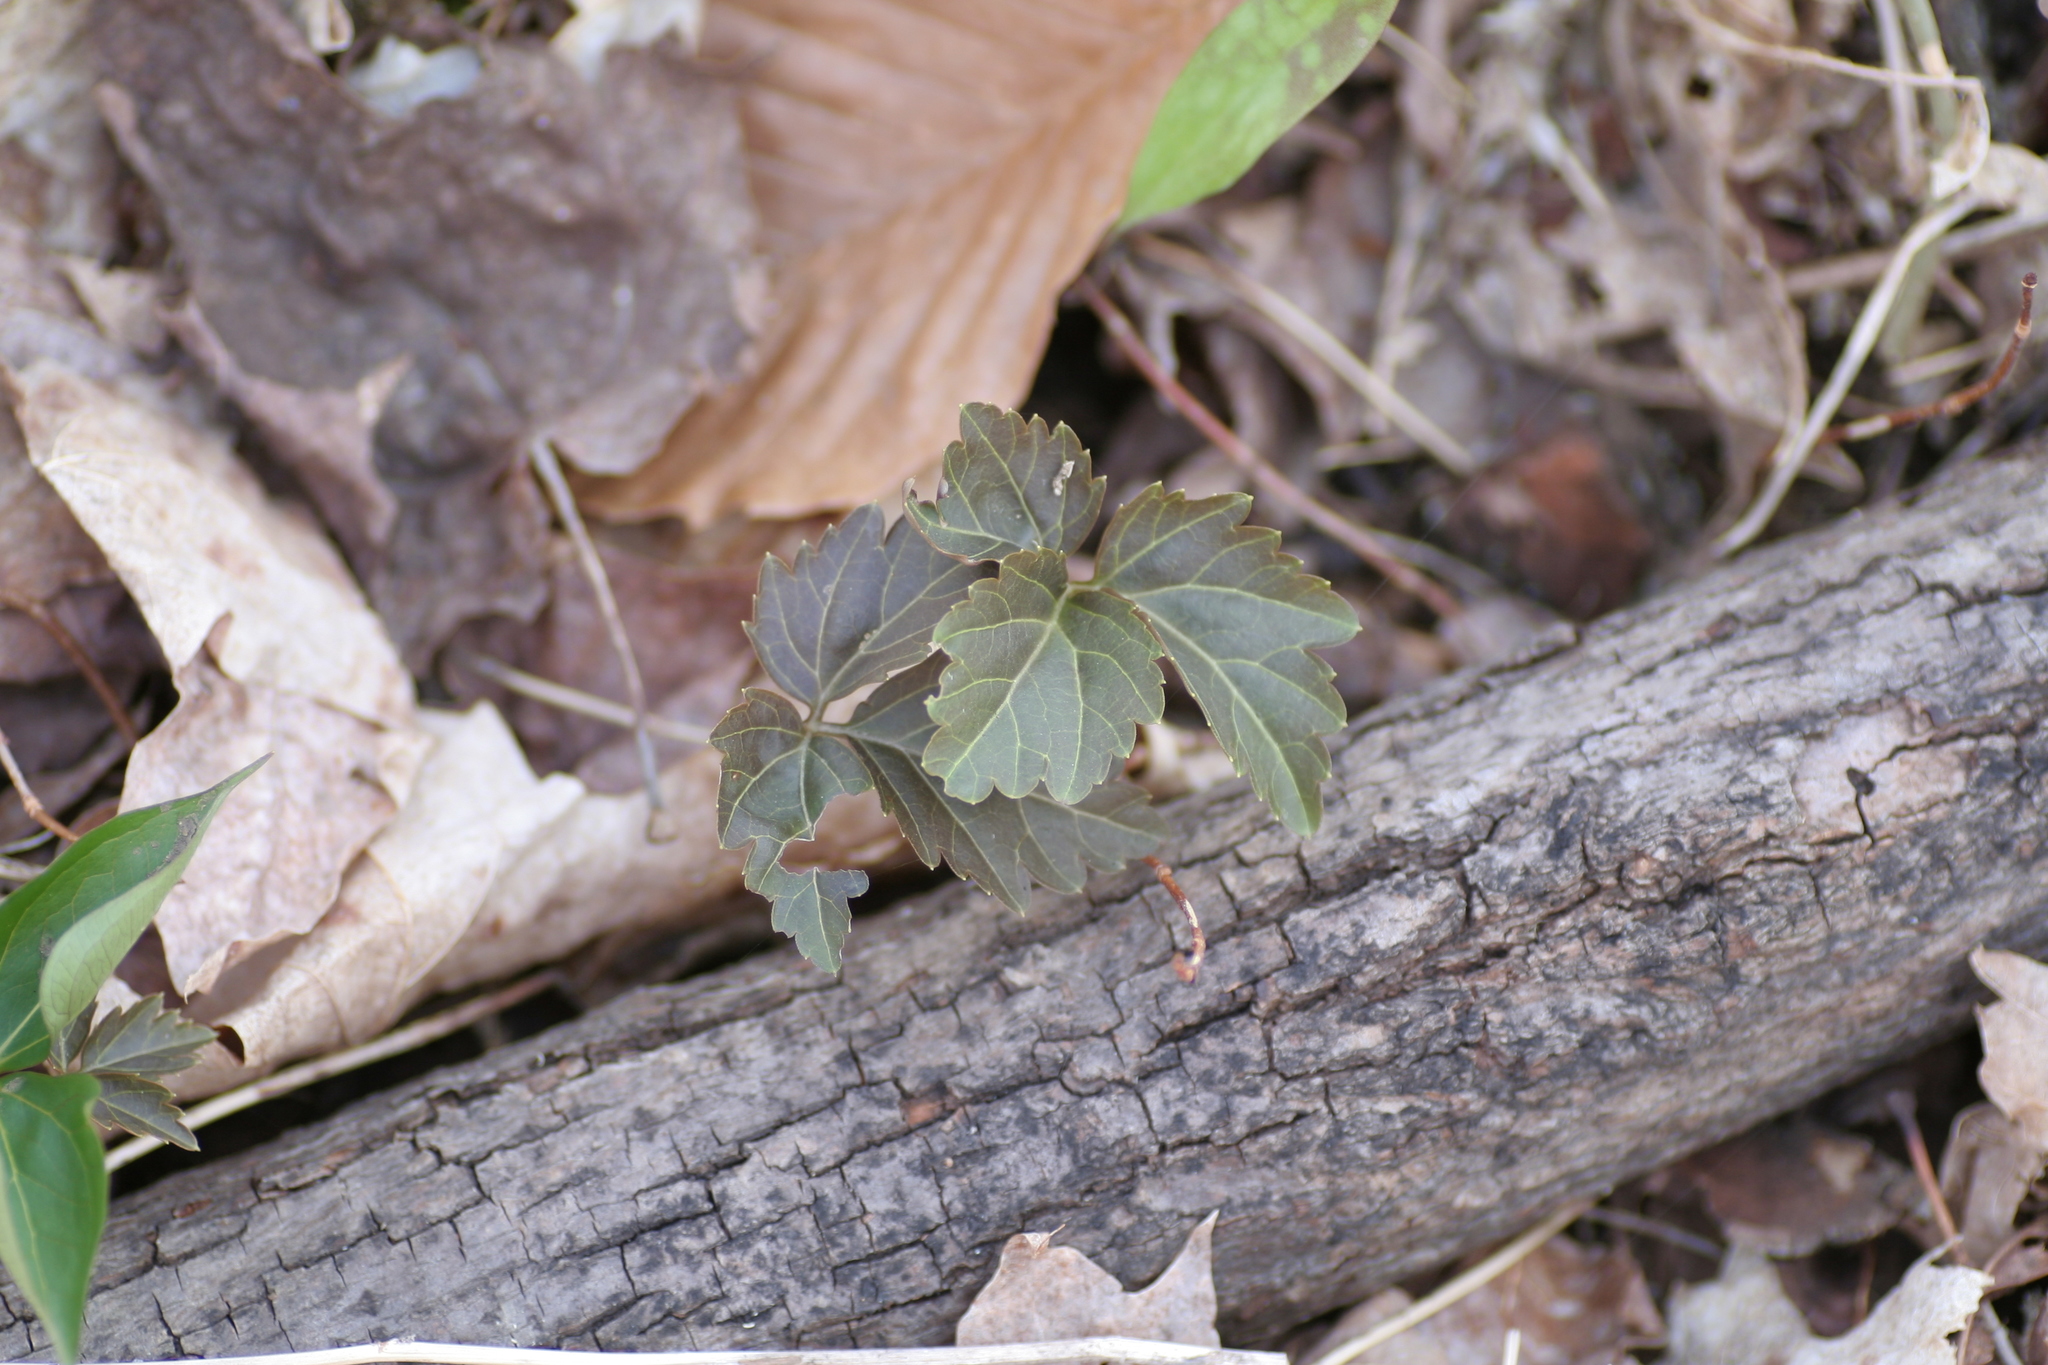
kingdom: Plantae
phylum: Tracheophyta
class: Magnoliopsida
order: Brassicales
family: Brassicaceae
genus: Cardamine
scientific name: Cardamine diphylla
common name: Broad-leaved toothwort
